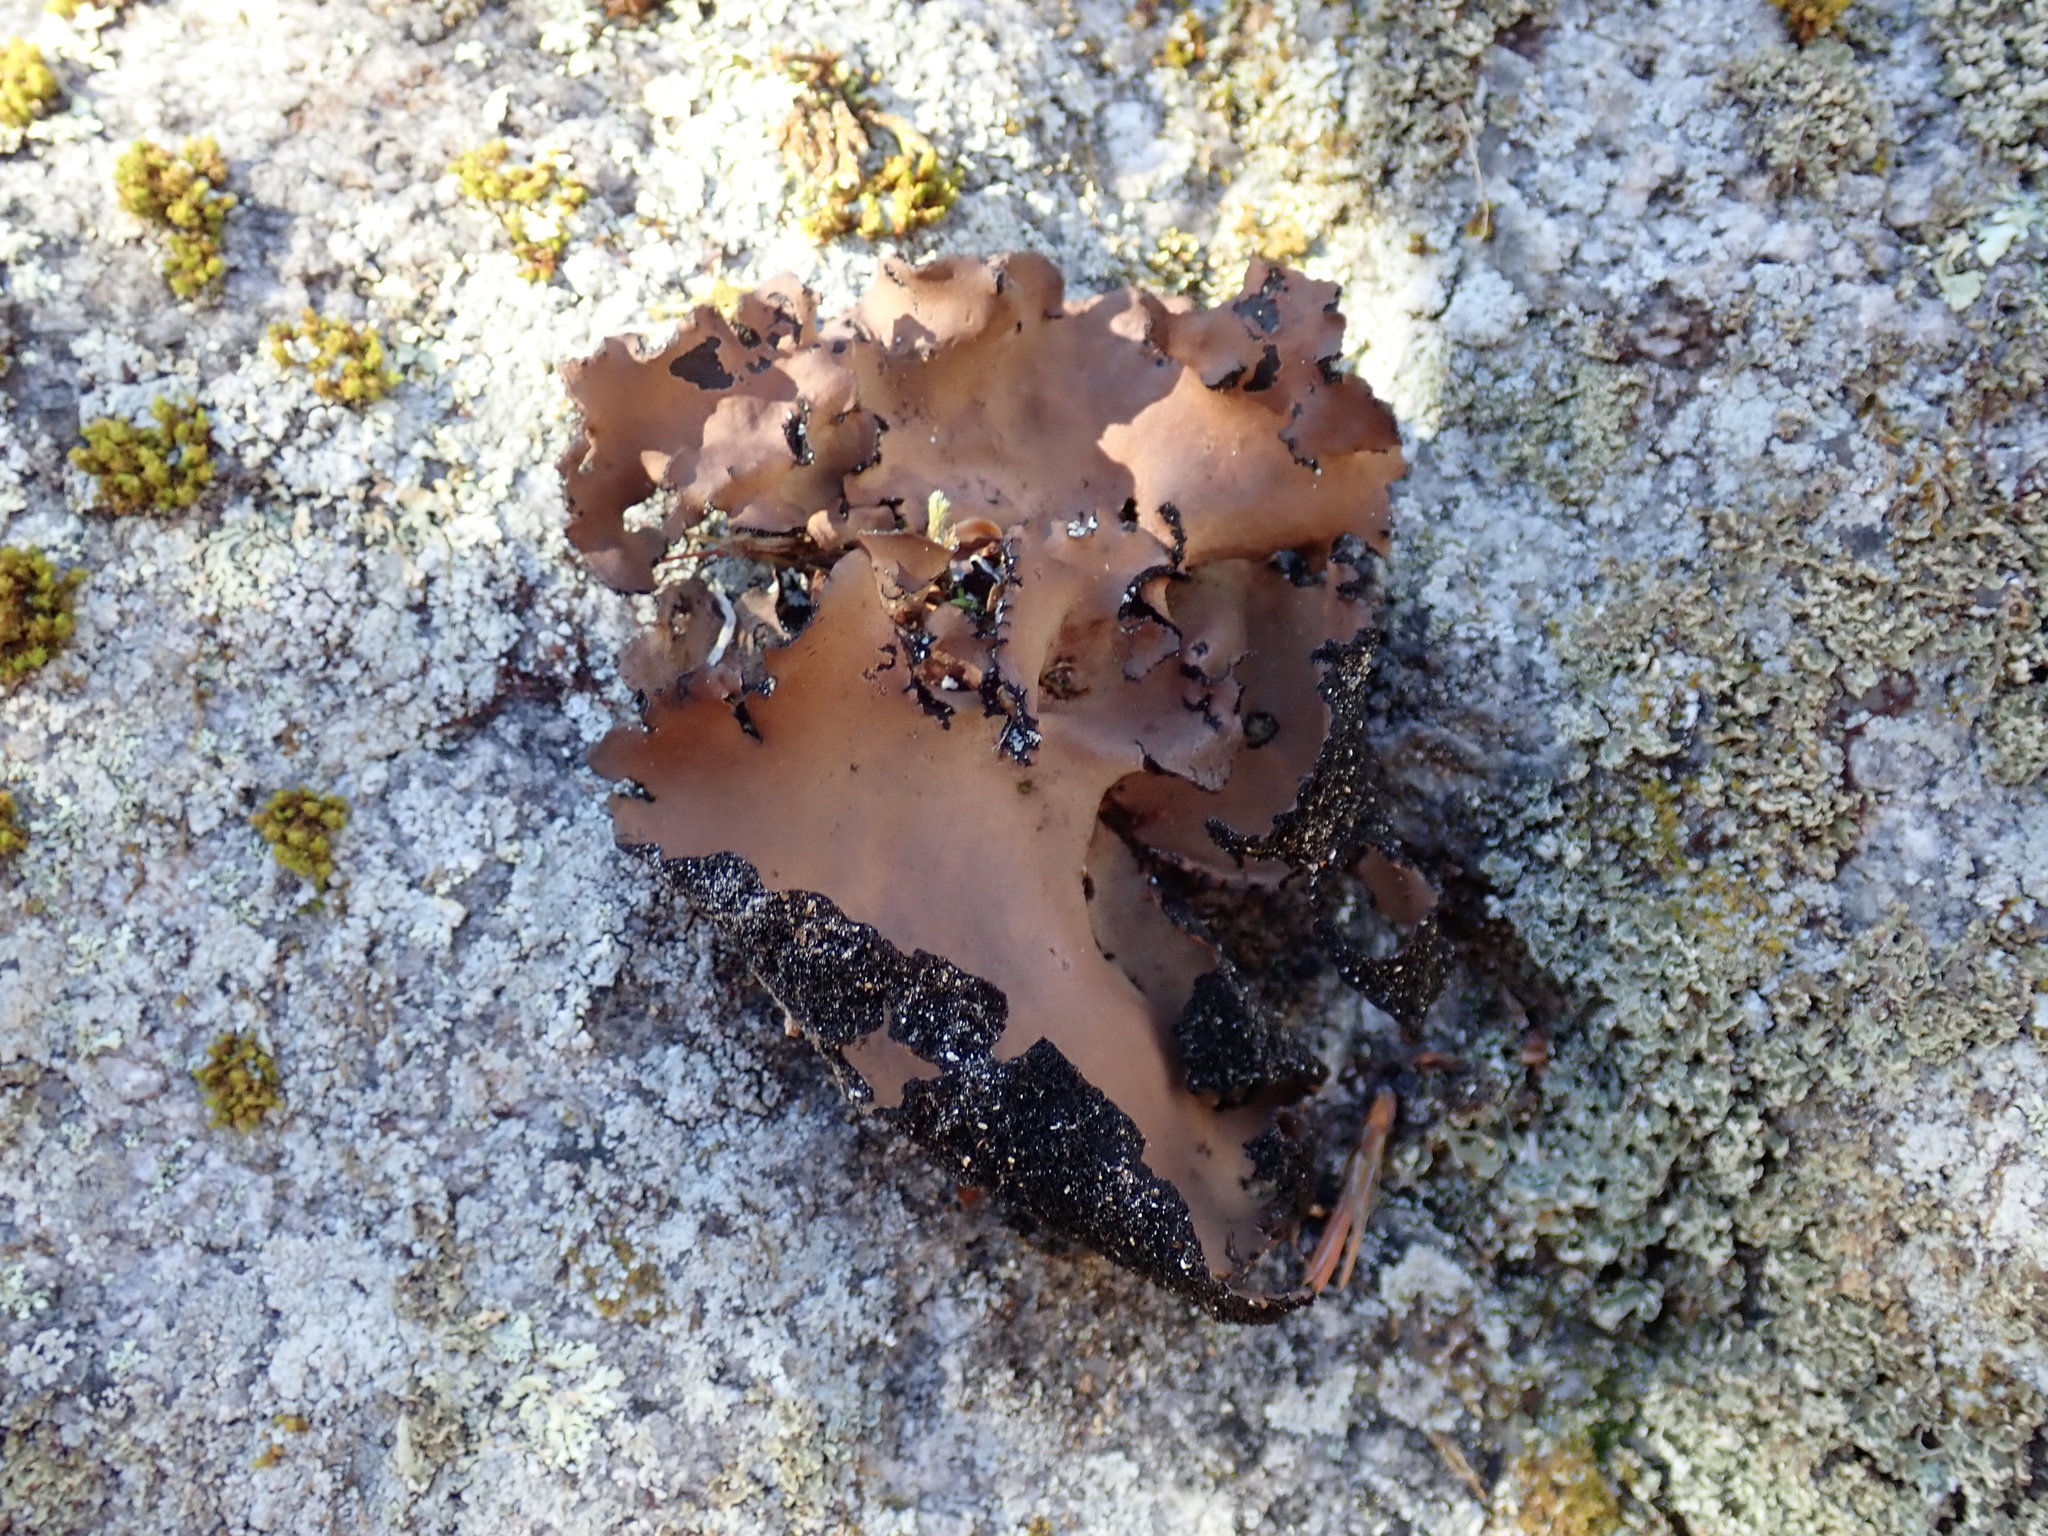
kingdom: Fungi
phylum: Ascomycota
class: Lecanoromycetes
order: Umbilicariales
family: Umbilicariaceae
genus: Umbilicaria
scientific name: Umbilicaria mammulata
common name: Smooth rock tripe
